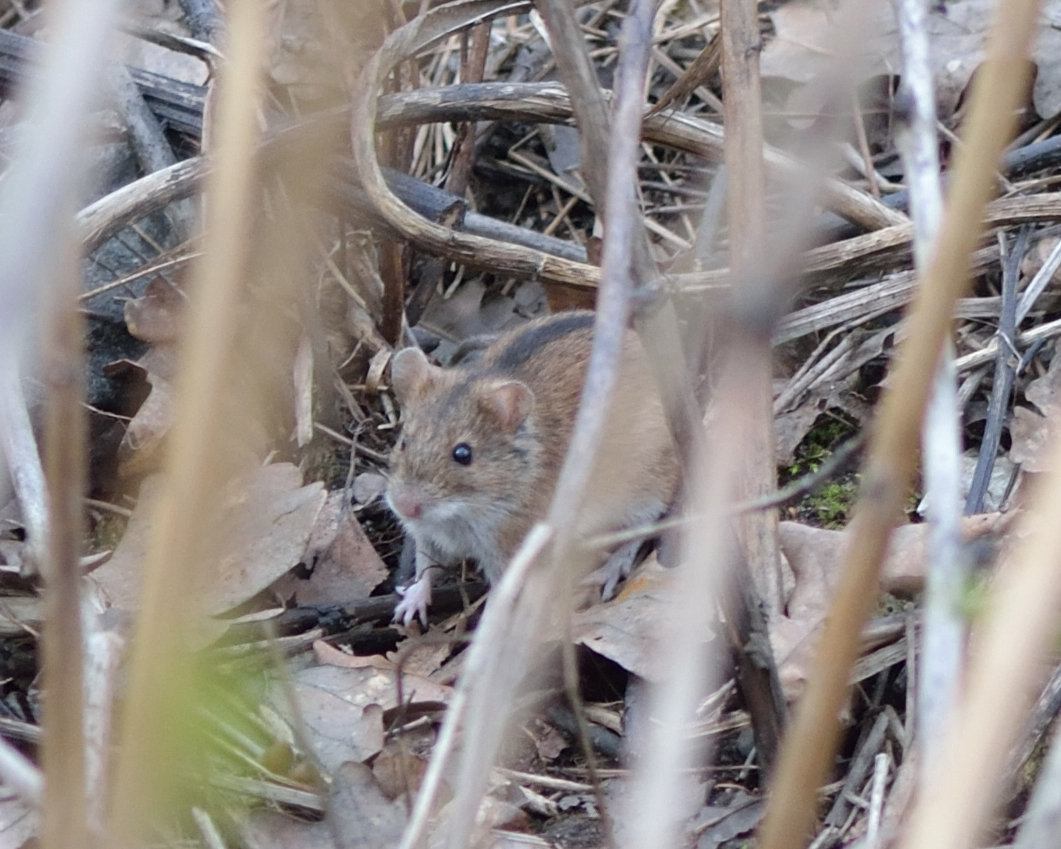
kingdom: Animalia
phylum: Chordata
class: Mammalia
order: Rodentia
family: Muridae
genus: Apodemus
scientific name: Apodemus agrarius
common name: Striped field mouse
